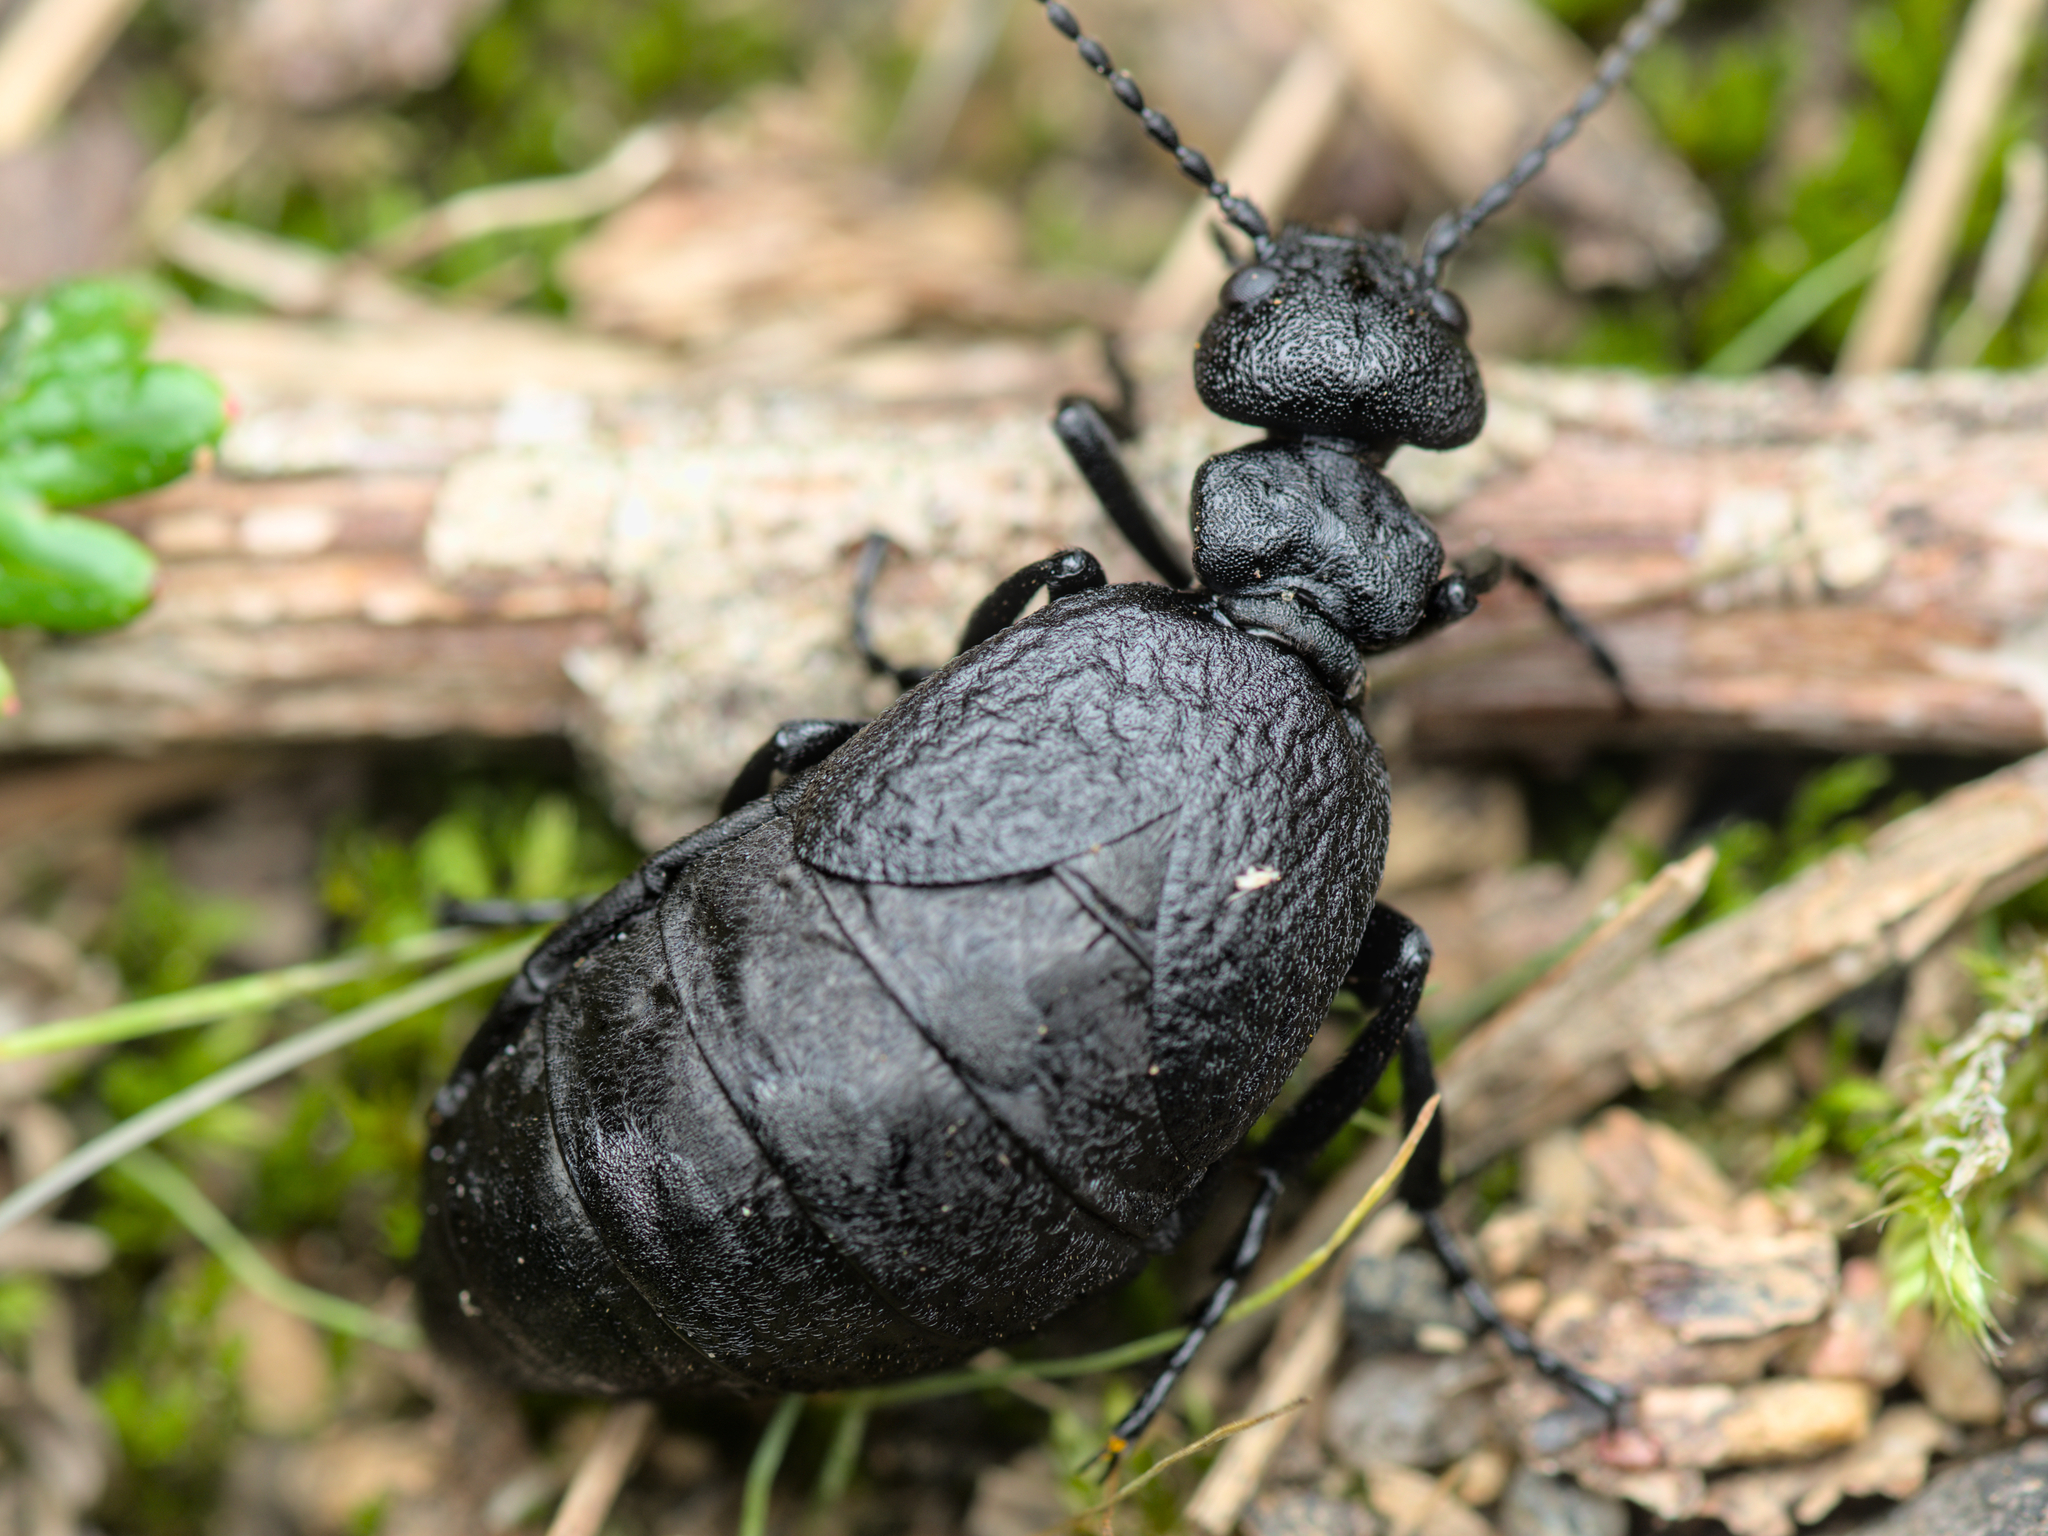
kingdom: Animalia
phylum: Arthropoda
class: Insecta
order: Coleoptera
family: Meloidae
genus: Meloe
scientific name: Meloe rugosus
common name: Rugged oil-beetle
